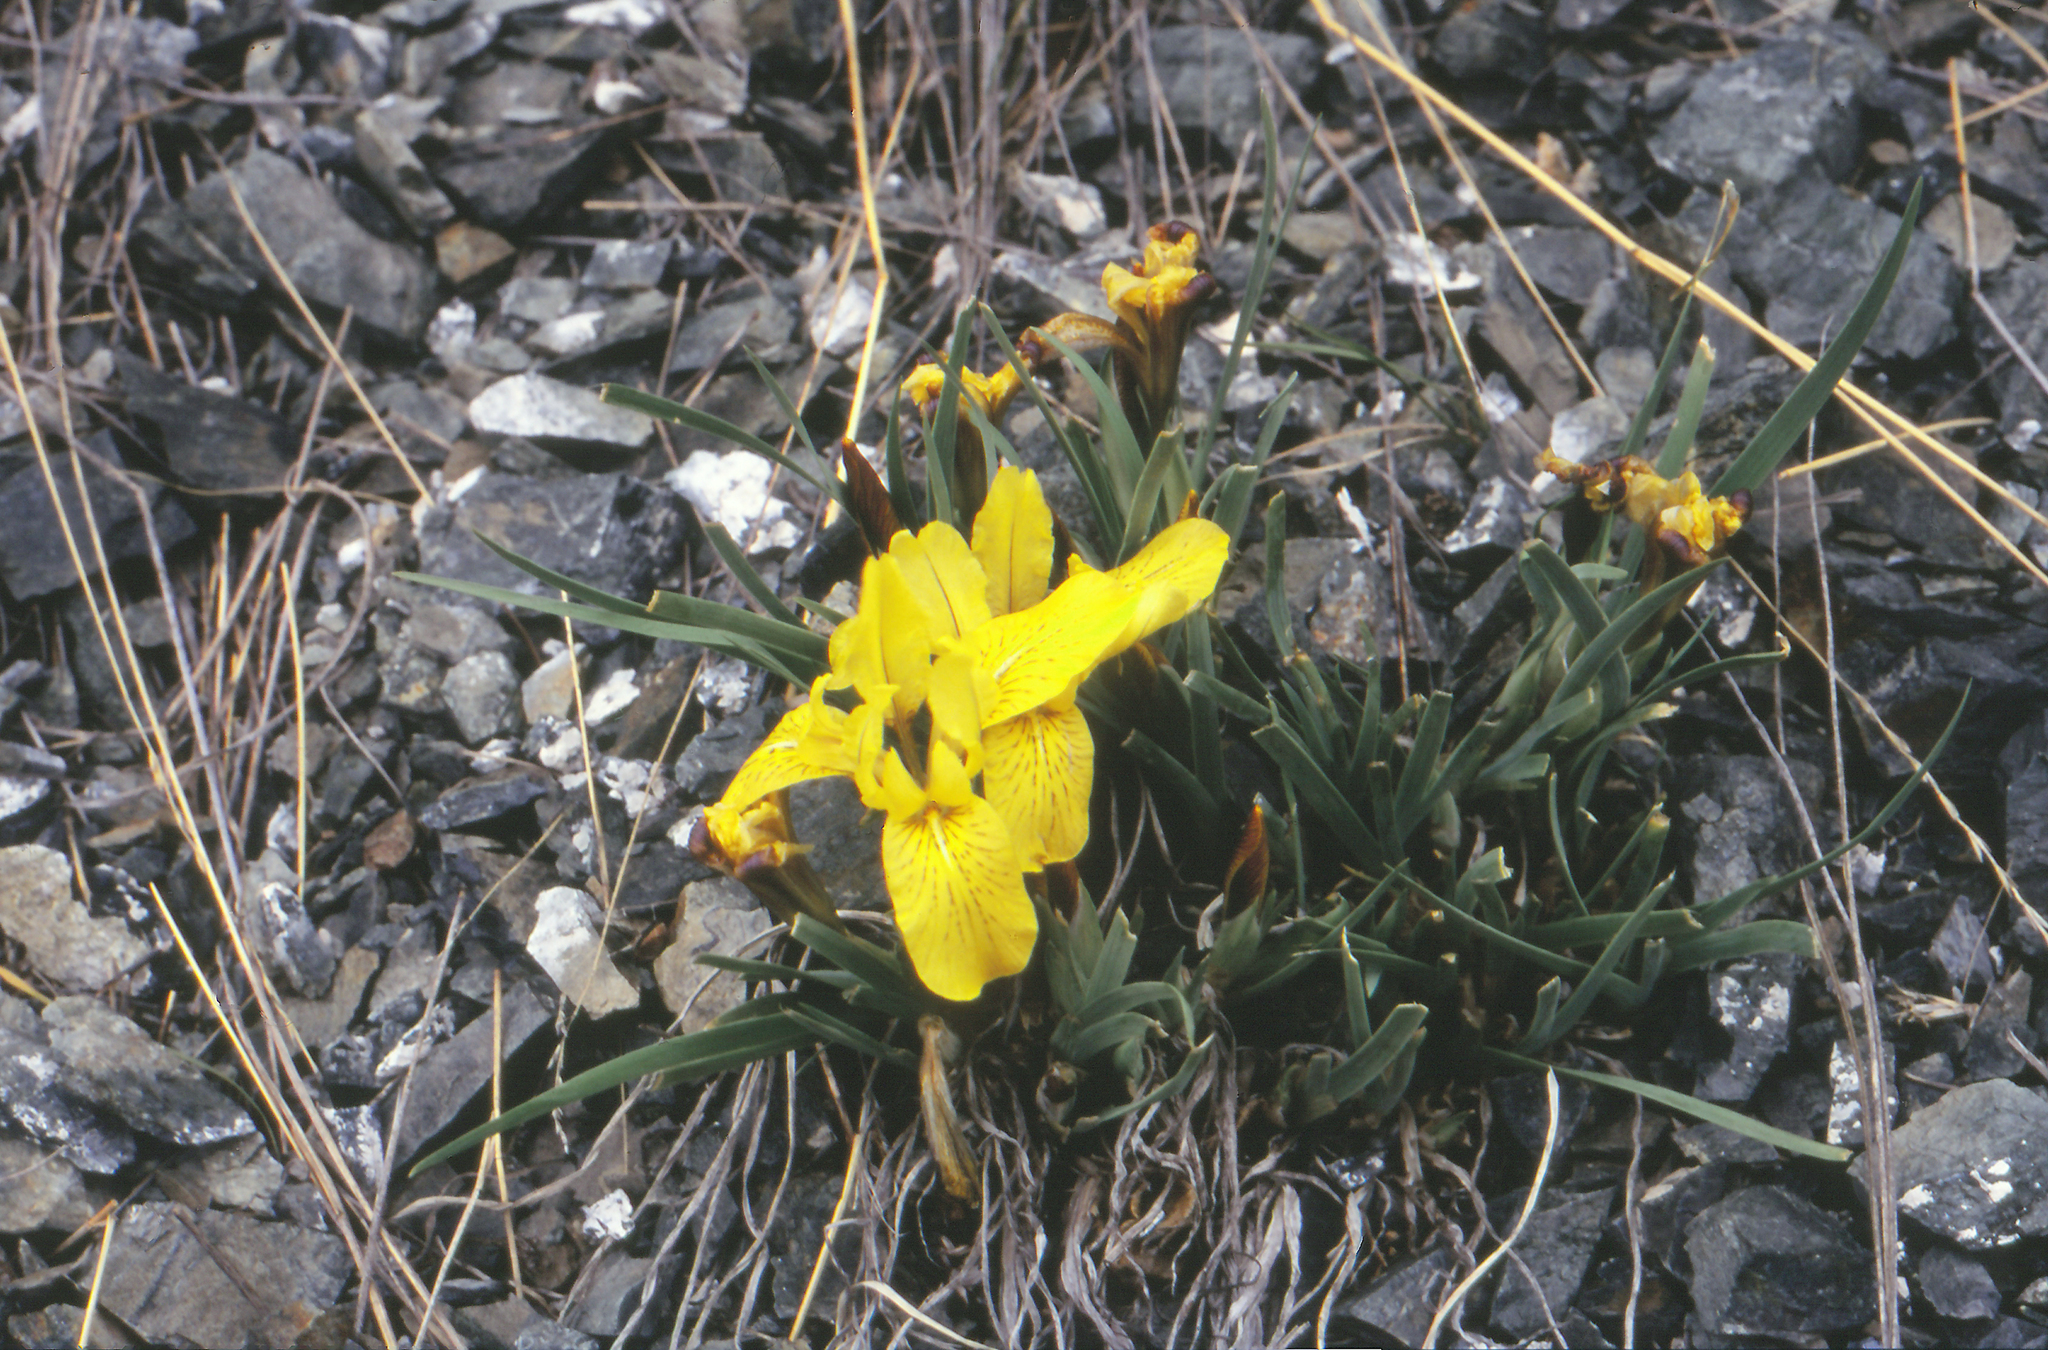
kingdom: Plantae
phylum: Tracheophyta
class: Liliopsida
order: Asparagales
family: Iridaceae
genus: Iris
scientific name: Iris potaninii
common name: Curl-sheath iris
